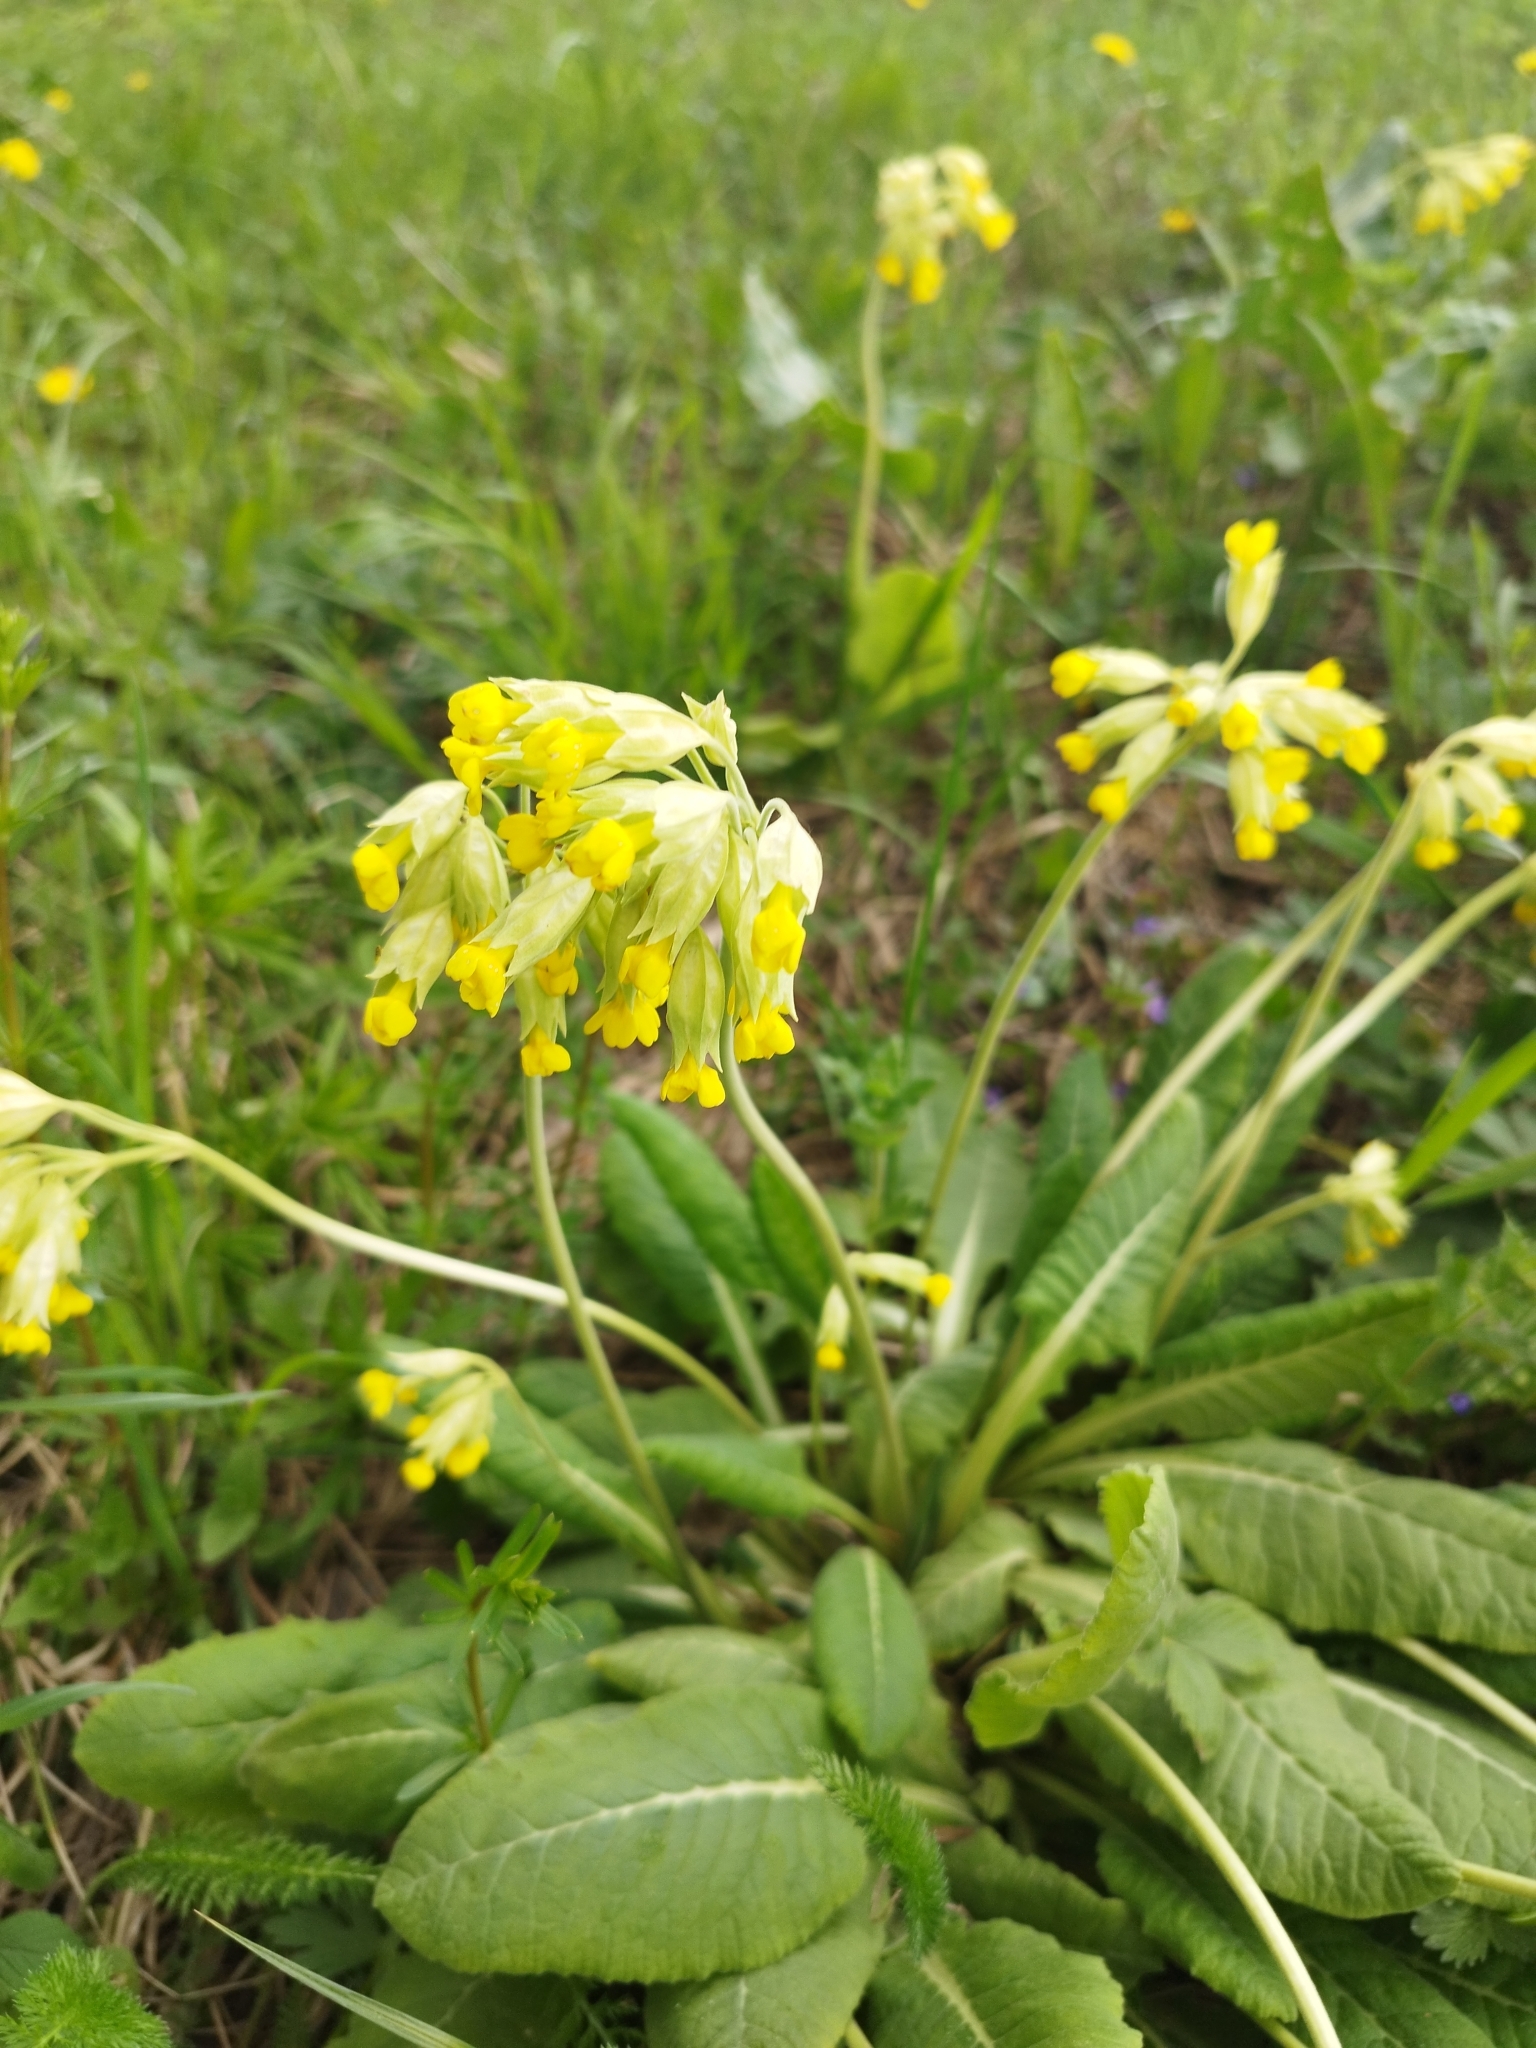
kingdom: Plantae
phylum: Tracheophyta
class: Magnoliopsida
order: Ericales
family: Primulaceae
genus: Primula
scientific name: Primula veris
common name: Cowslip
